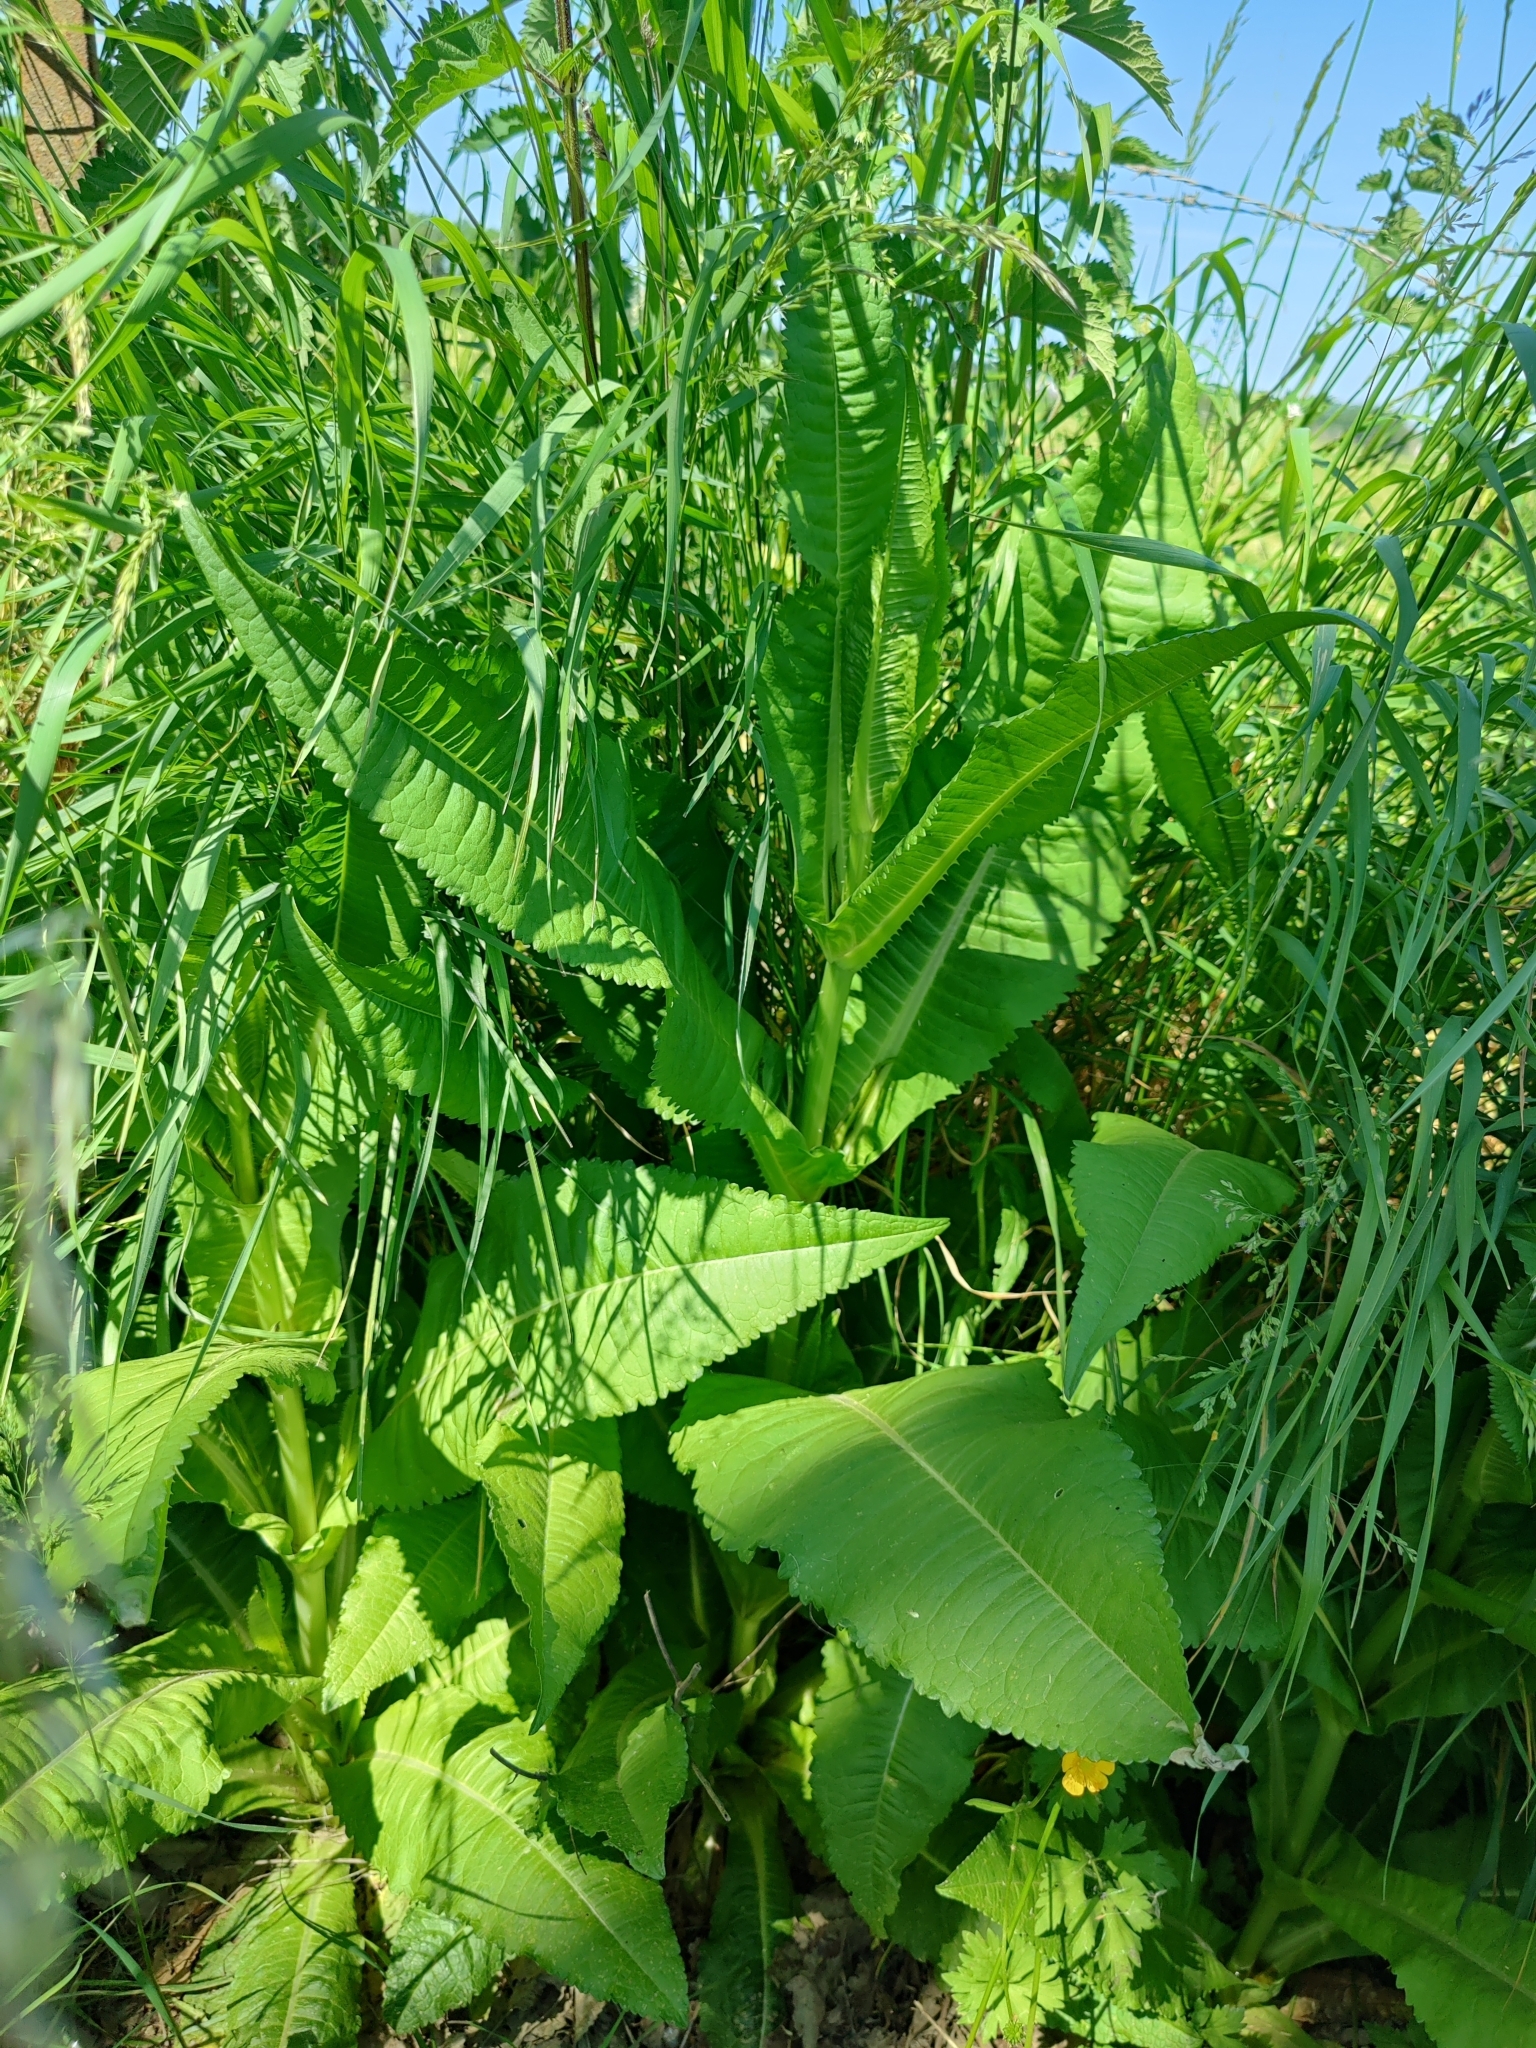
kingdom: Plantae
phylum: Tracheophyta
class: Magnoliopsida
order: Dipsacales
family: Caprifoliaceae
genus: Dipsacus
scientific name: Dipsacus fullonum
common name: Teasel
